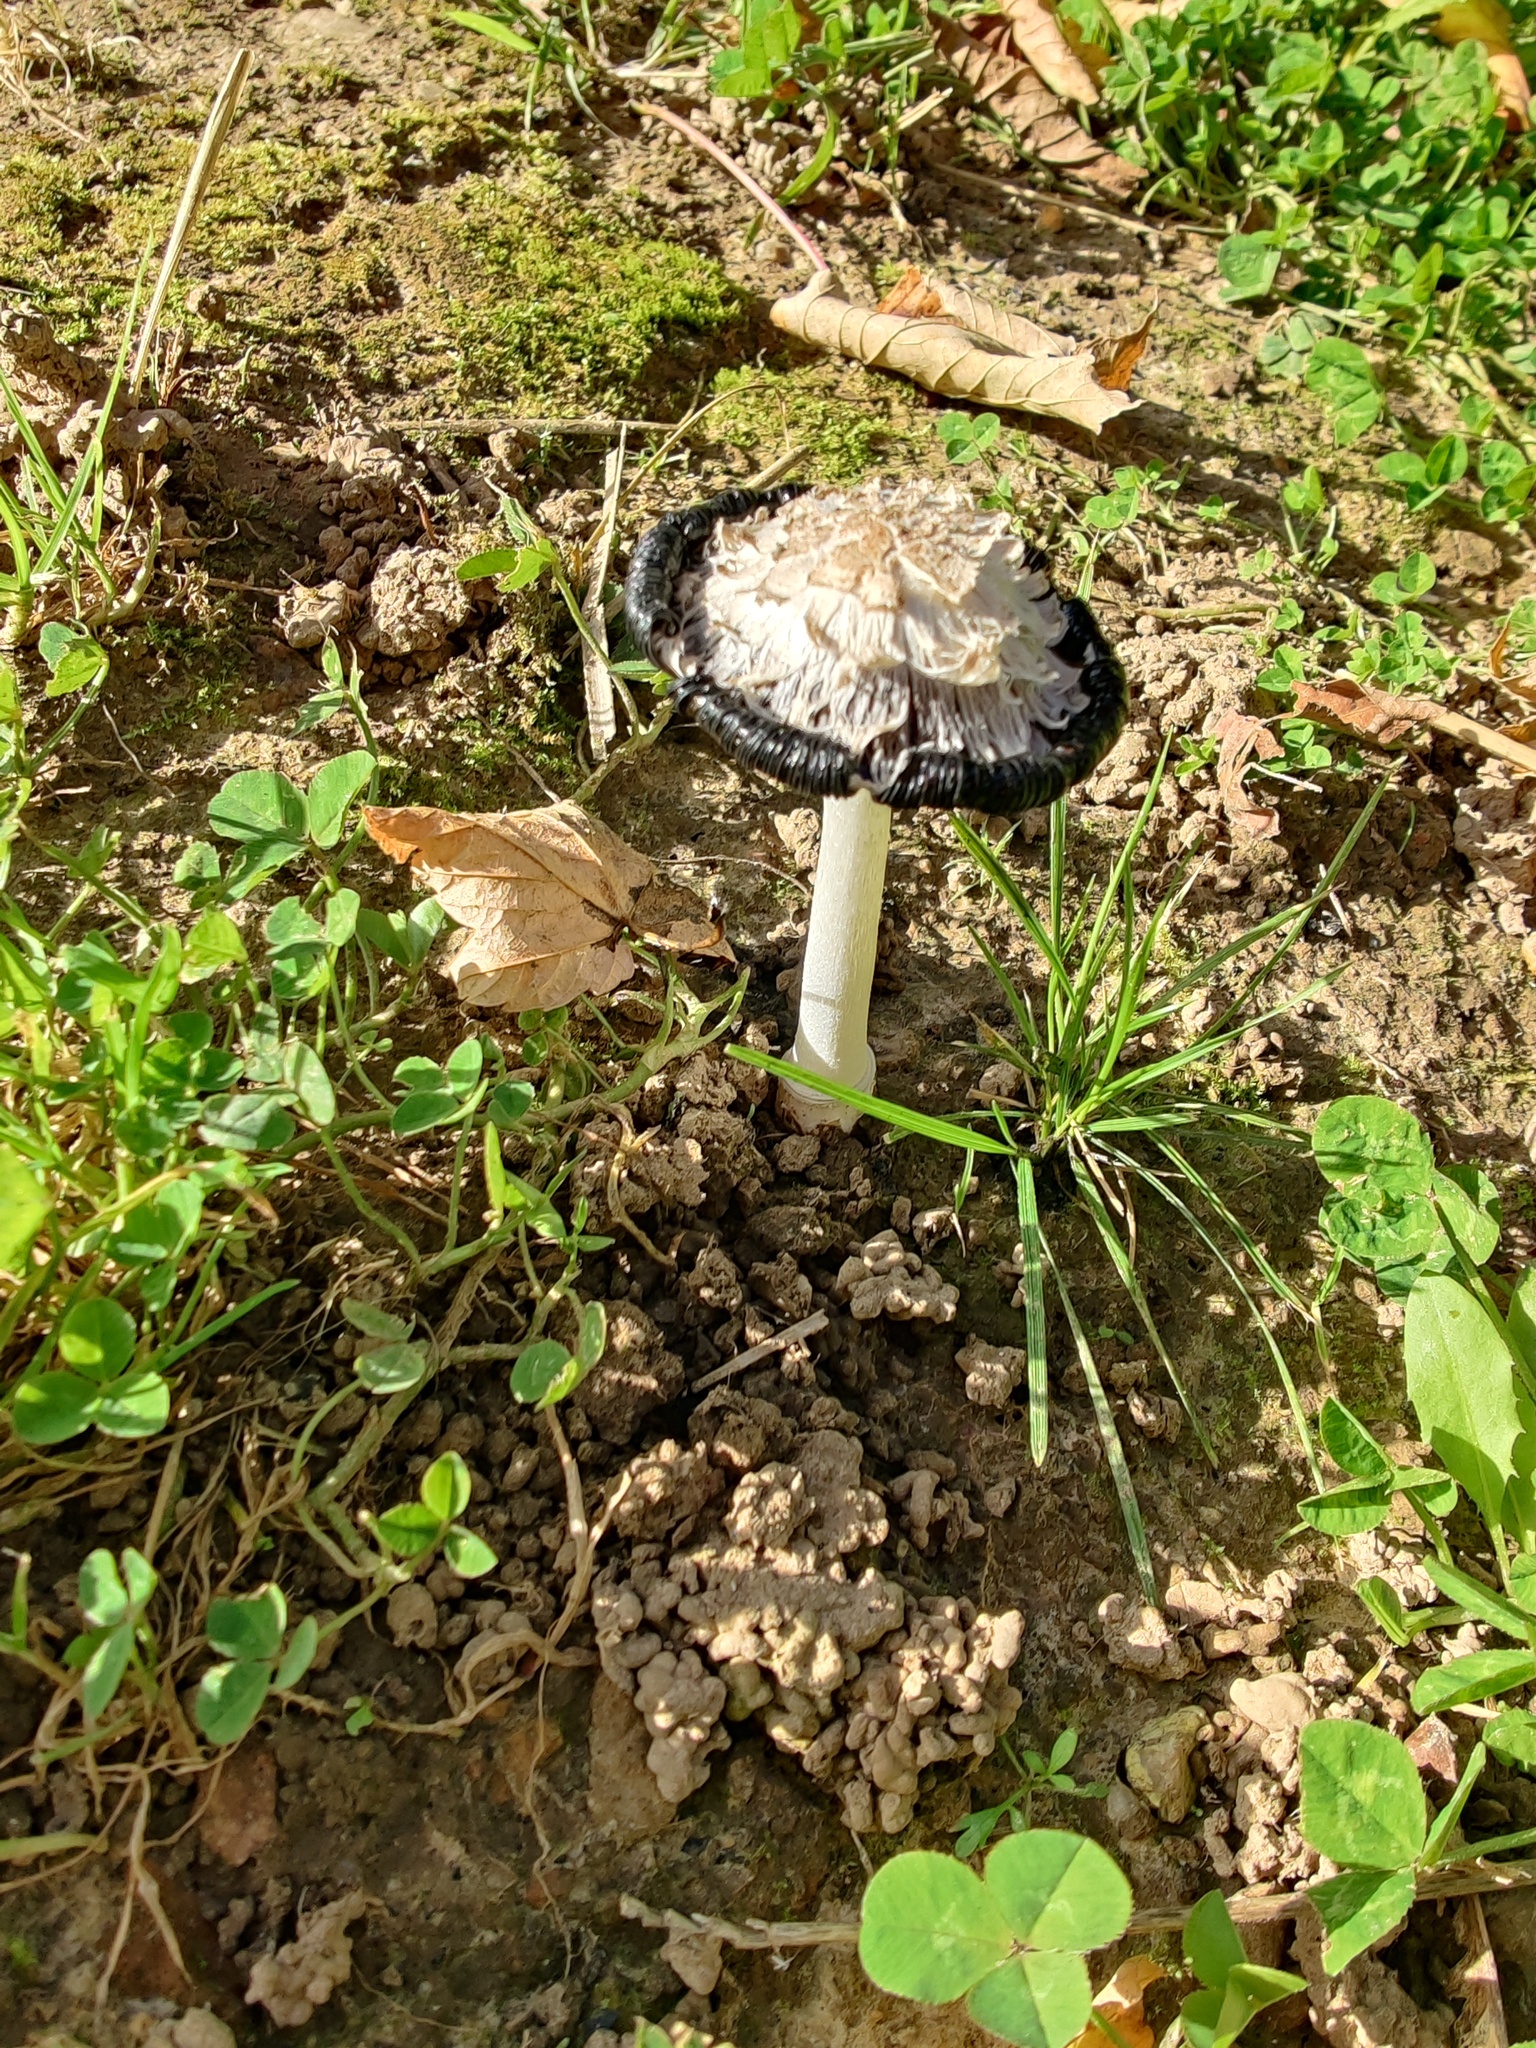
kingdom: Fungi
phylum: Basidiomycota
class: Agaricomycetes
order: Agaricales
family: Agaricaceae
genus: Coprinus
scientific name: Coprinus comatus
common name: Lawyer's wig
